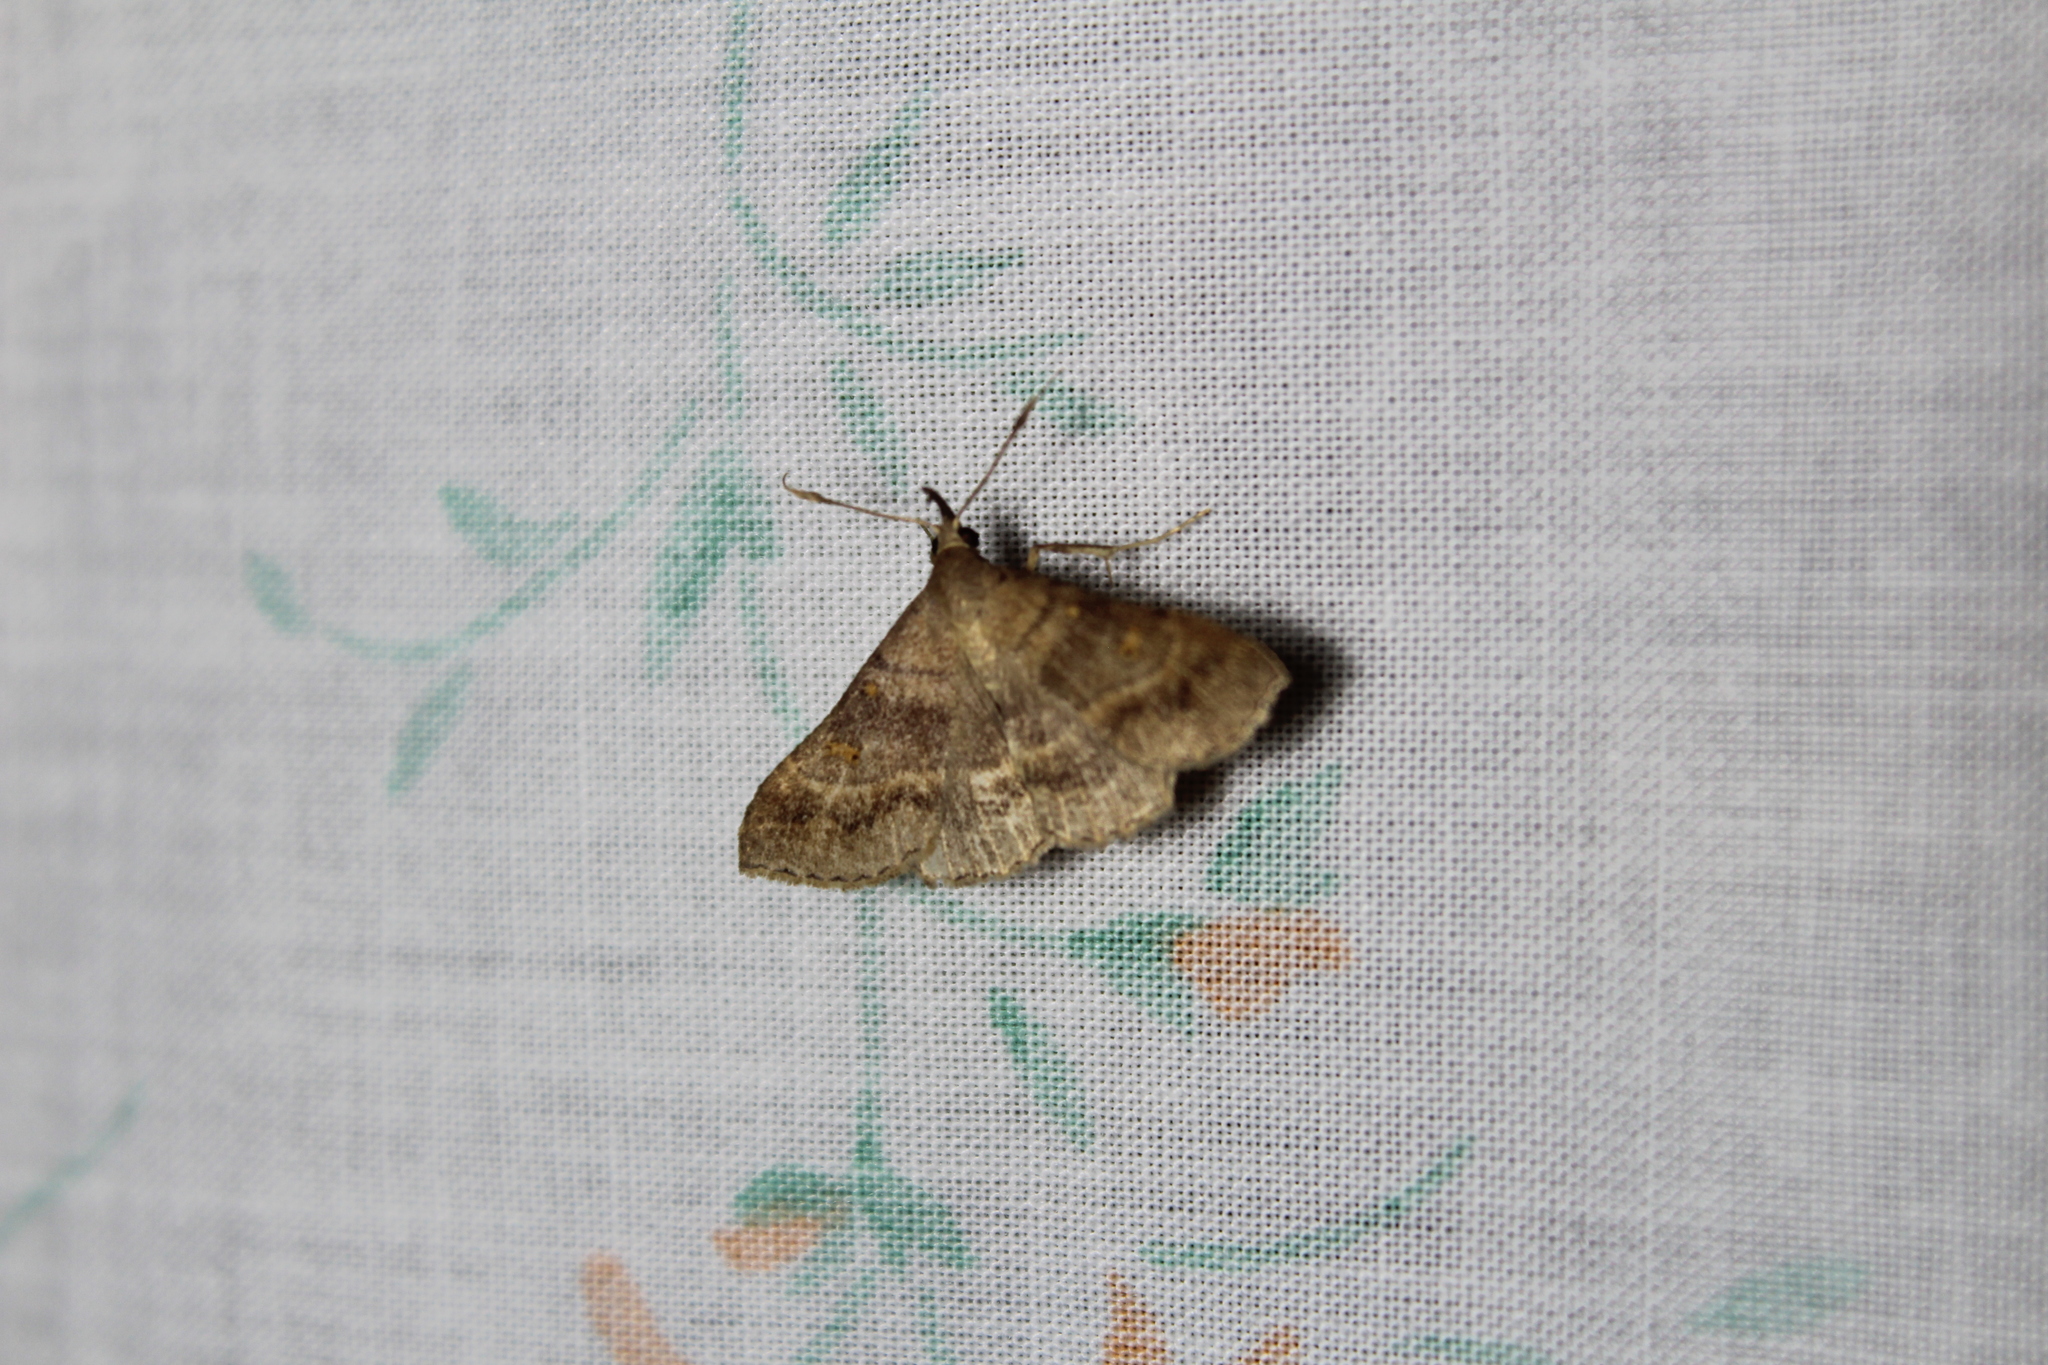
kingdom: Animalia
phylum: Arthropoda
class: Insecta
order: Lepidoptera
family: Erebidae
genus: Renia
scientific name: Renia flavipunctalis
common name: Yellow-spotted renia moth
